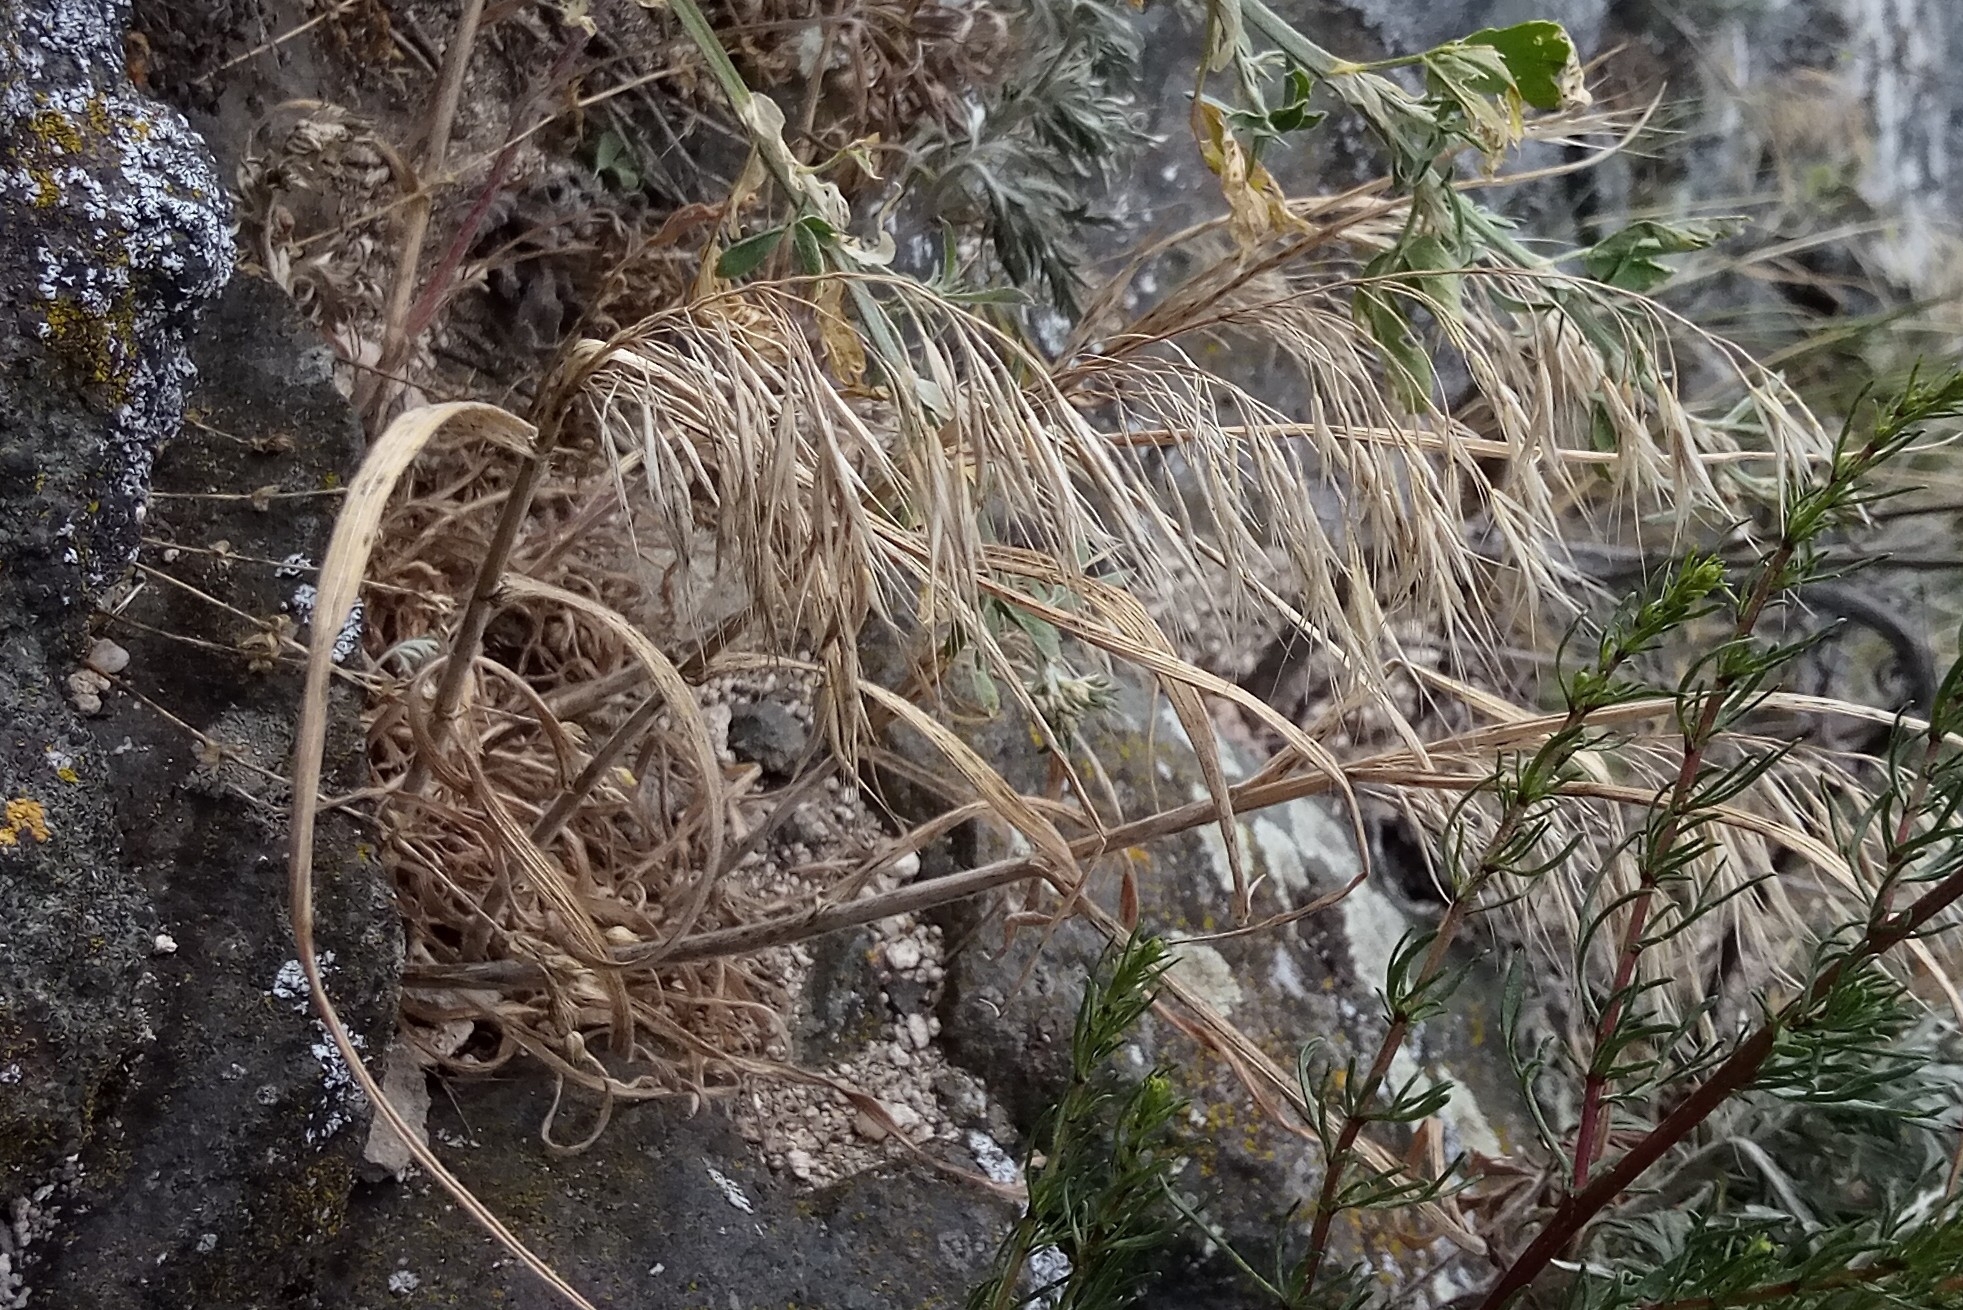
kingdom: Plantae
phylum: Tracheophyta
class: Liliopsida
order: Poales
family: Poaceae
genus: Bromus
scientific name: Bromus tectorum
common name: Cheatgrass
